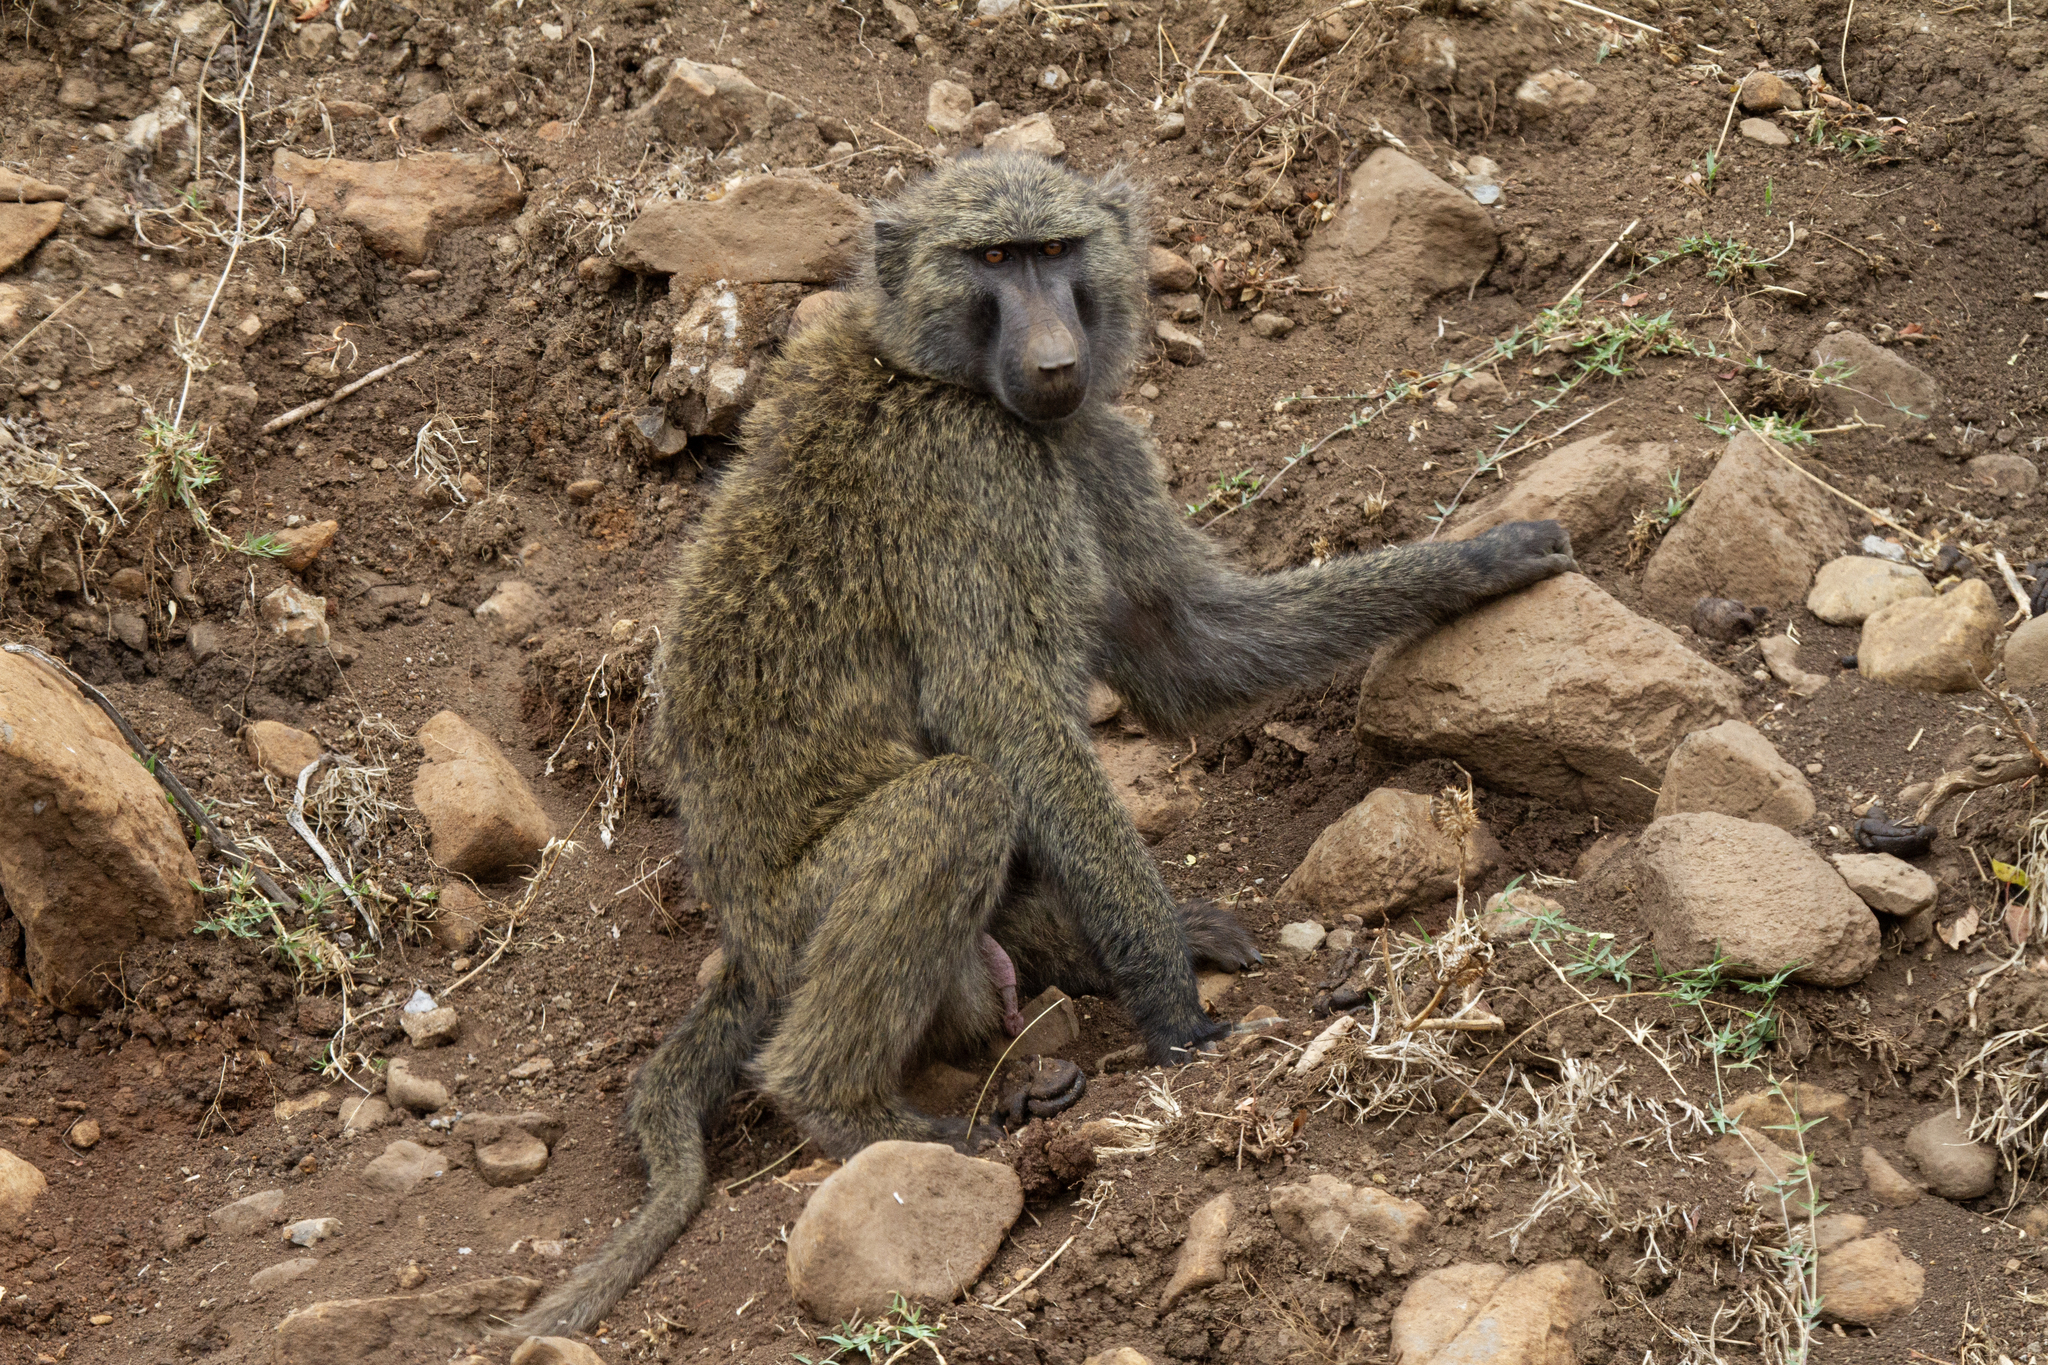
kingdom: Animalia
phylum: Chordata
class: Mammalia
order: Primates
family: Cercopithecidae
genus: Papio
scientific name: Papio anubis
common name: Olive baboon
